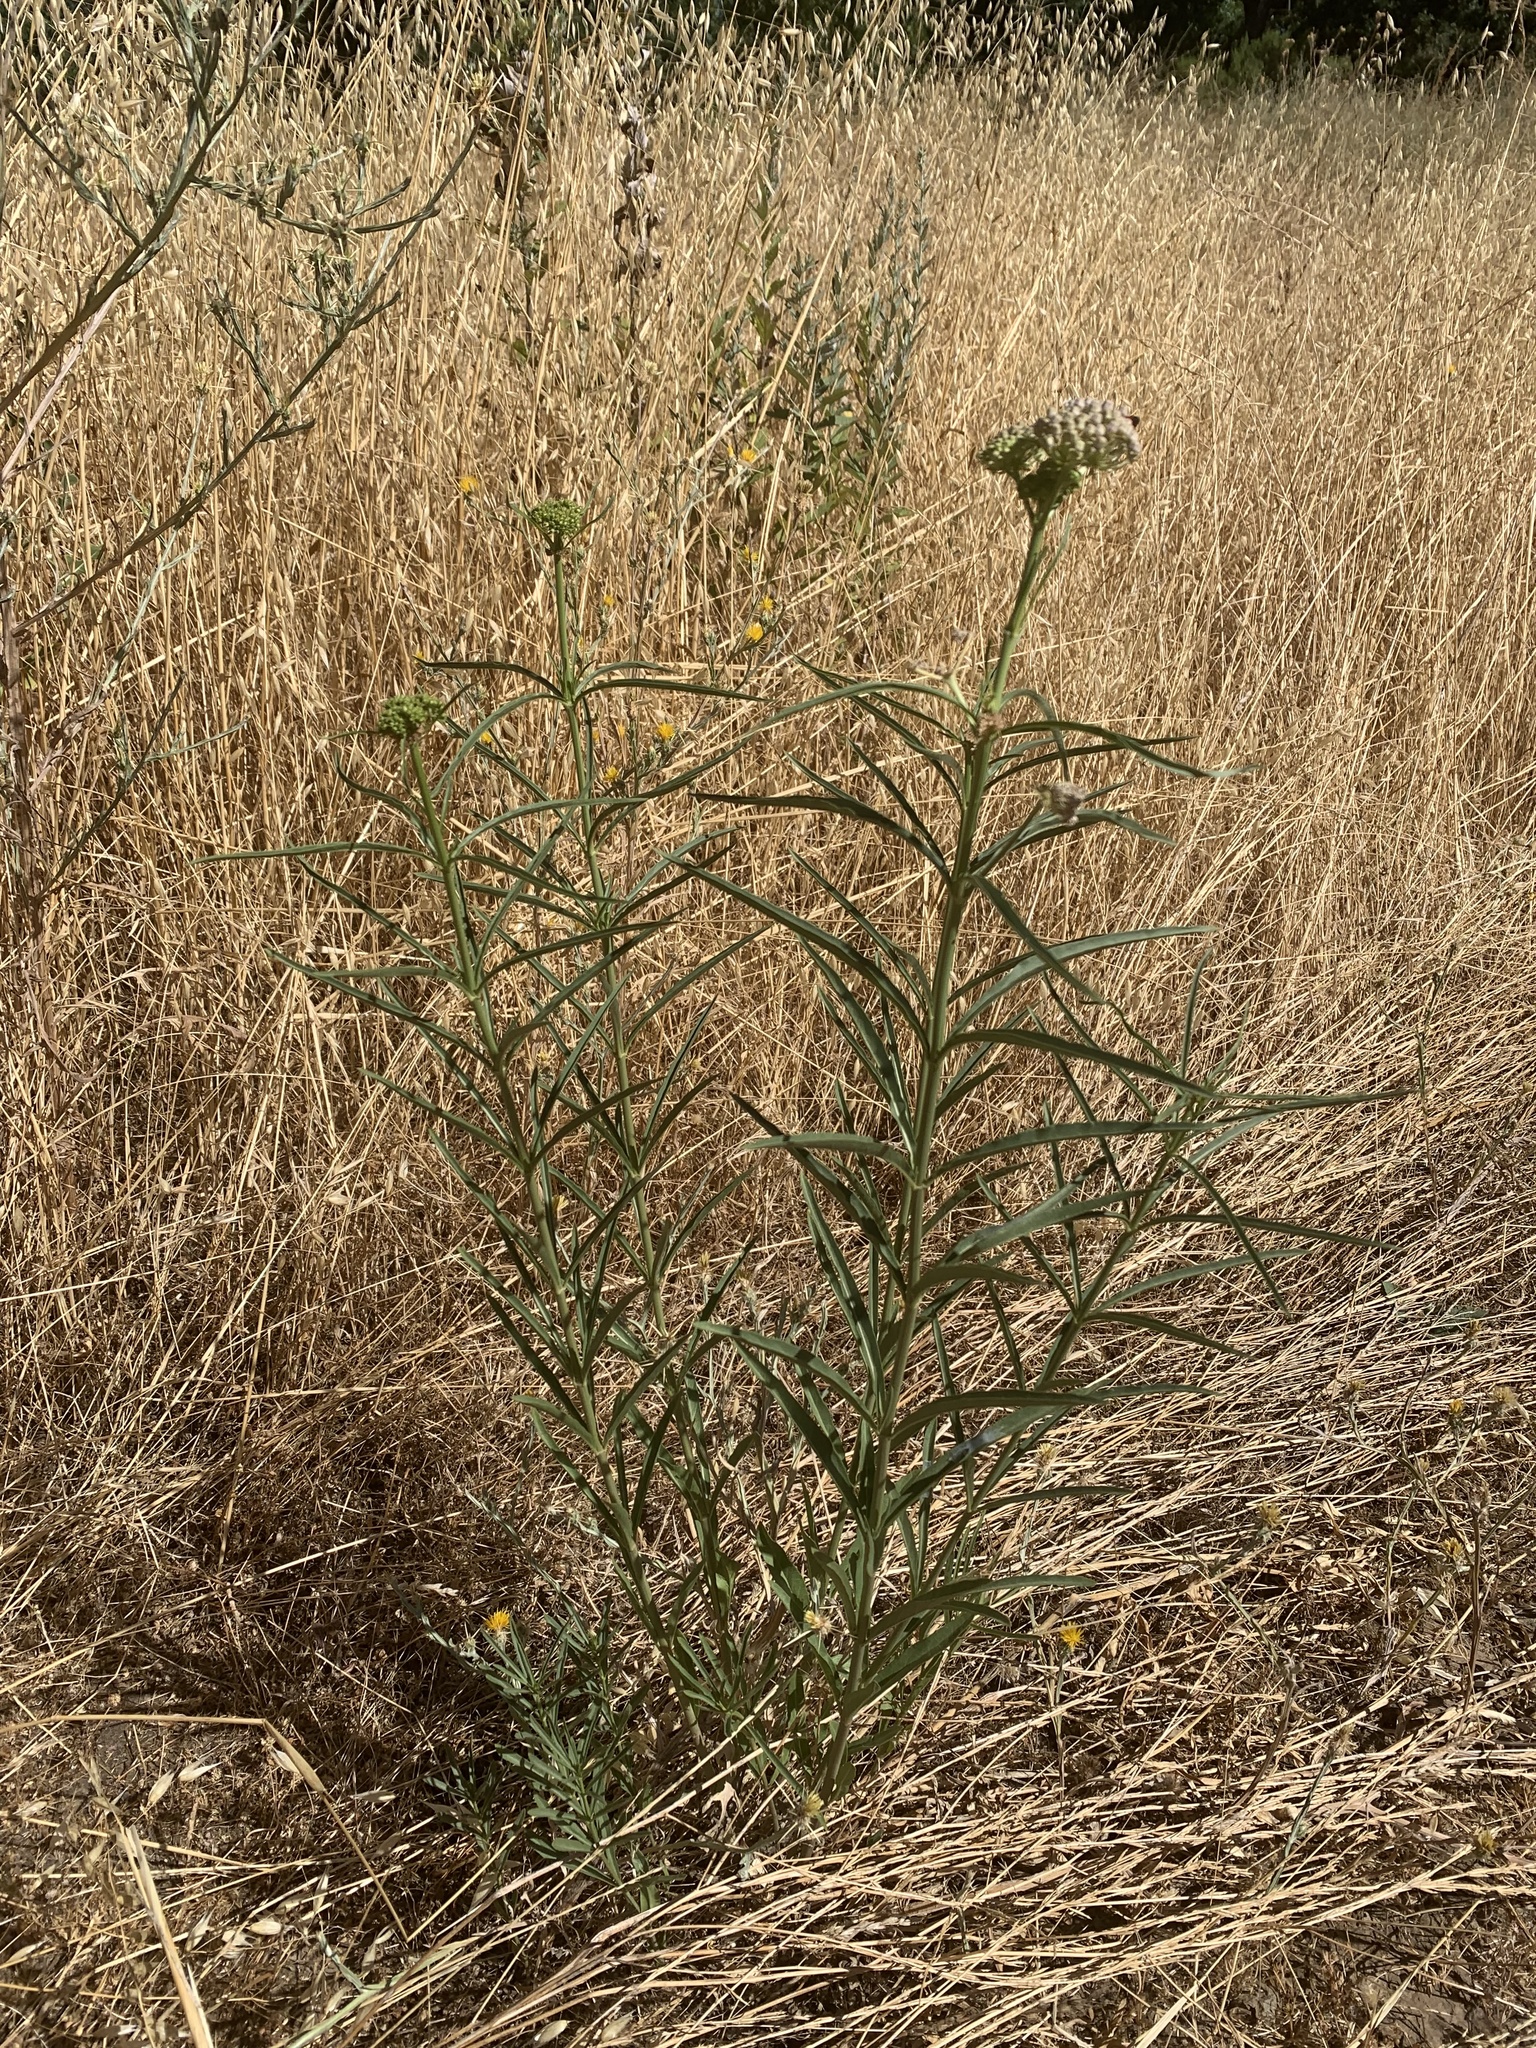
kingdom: Plantae
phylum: Tracheophyta
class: Magnoliopsida
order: Gentianales
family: Apocynaceae
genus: Asclepias
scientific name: Asclepias fascicularis
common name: Mexican milkweed
